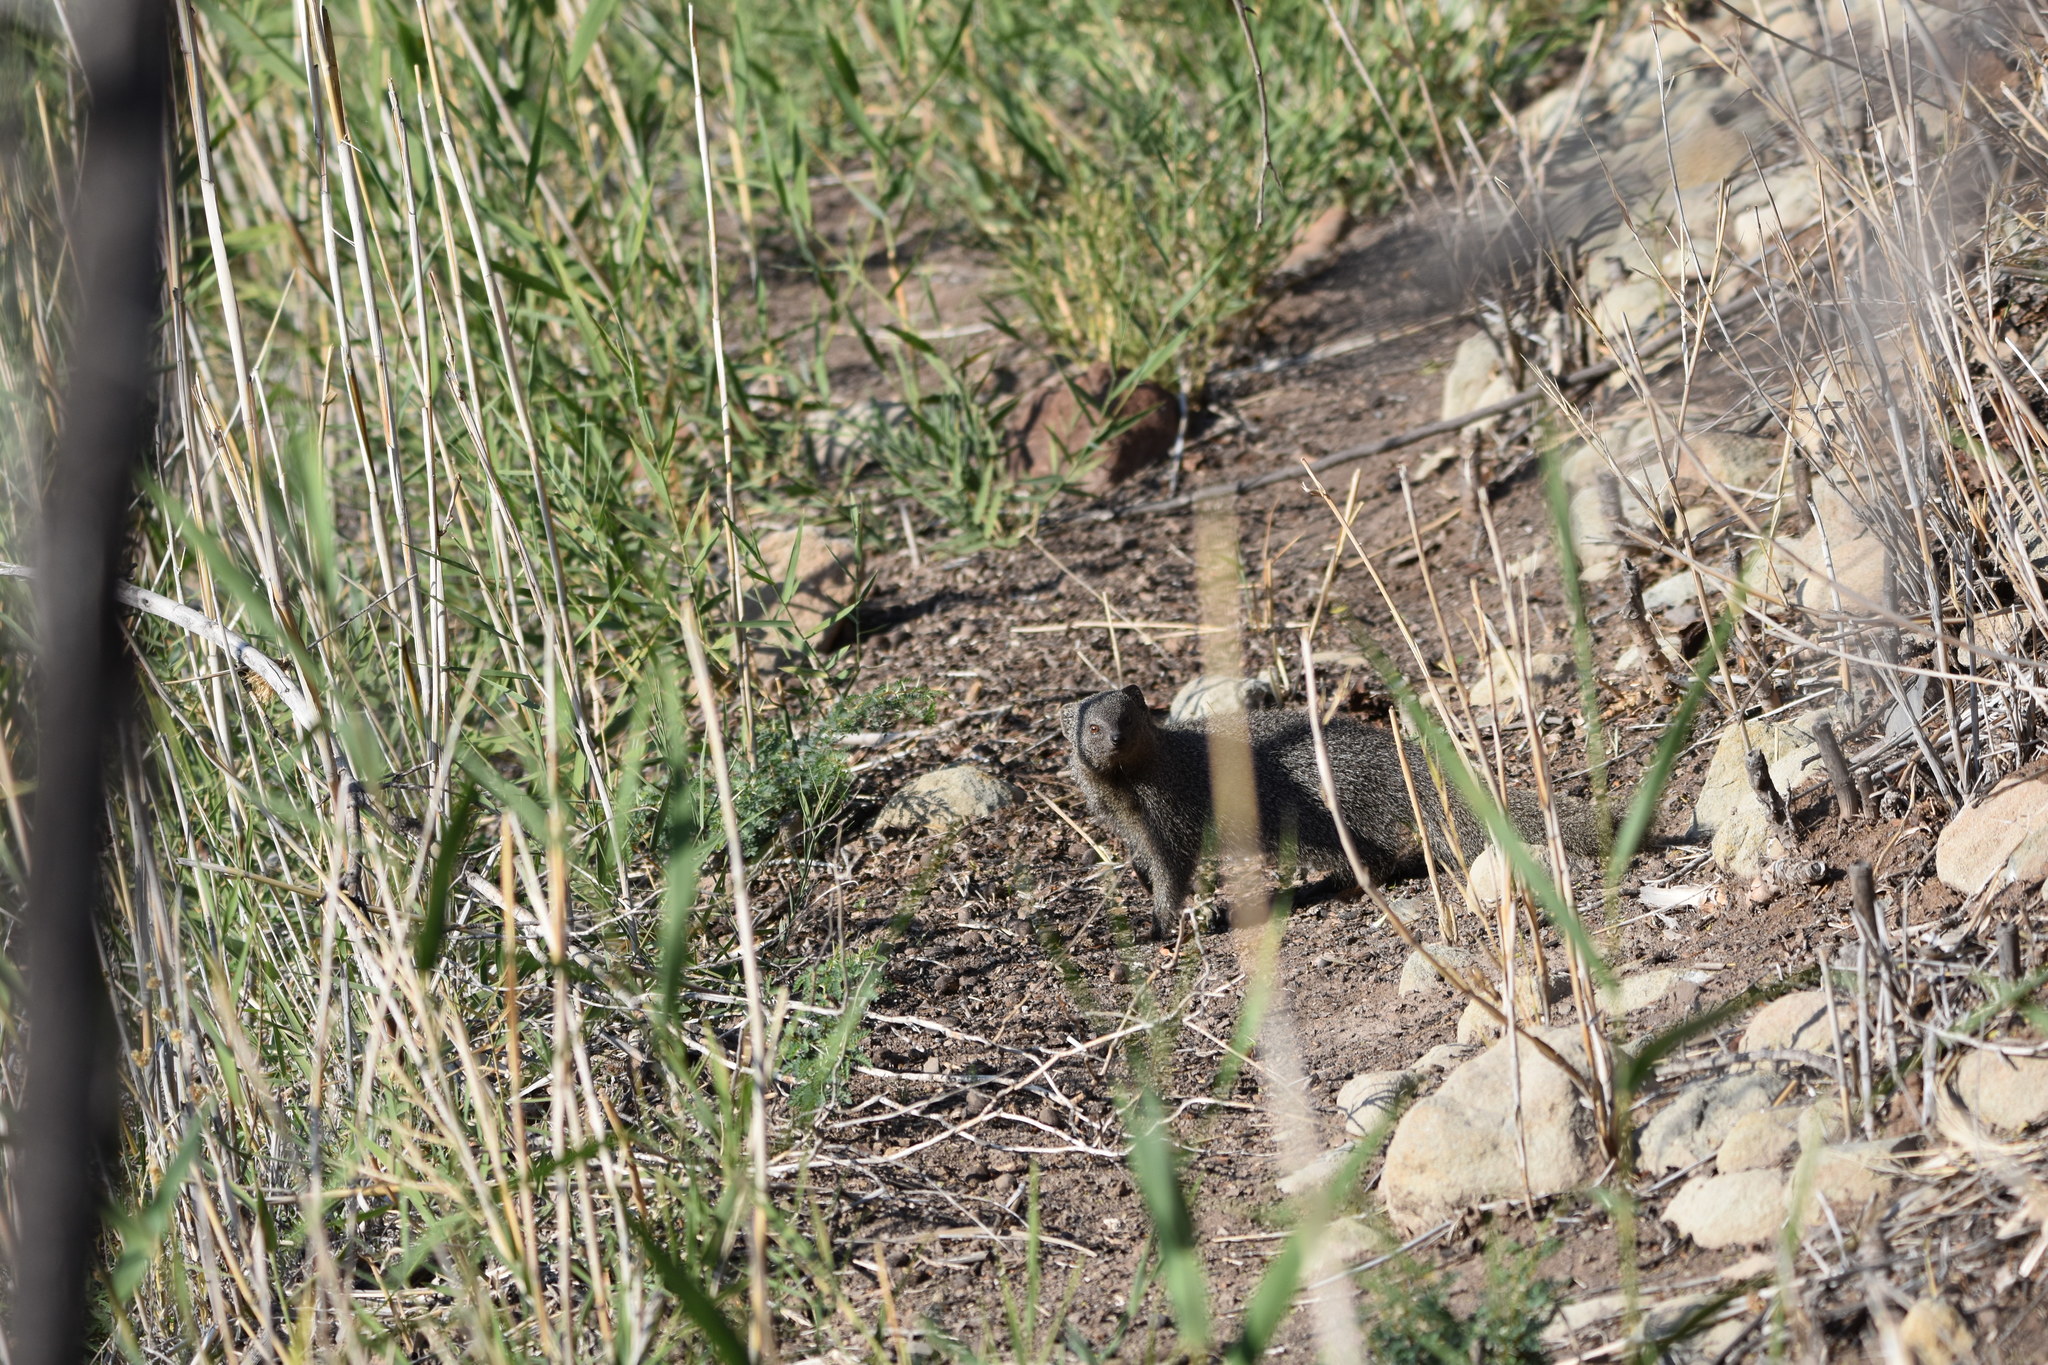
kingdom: Animalia
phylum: Chordata
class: Mammalia
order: Carnivora
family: Herpestidae
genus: Galerella
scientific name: Galerella pulverulenta
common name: Cape gray mongoose
